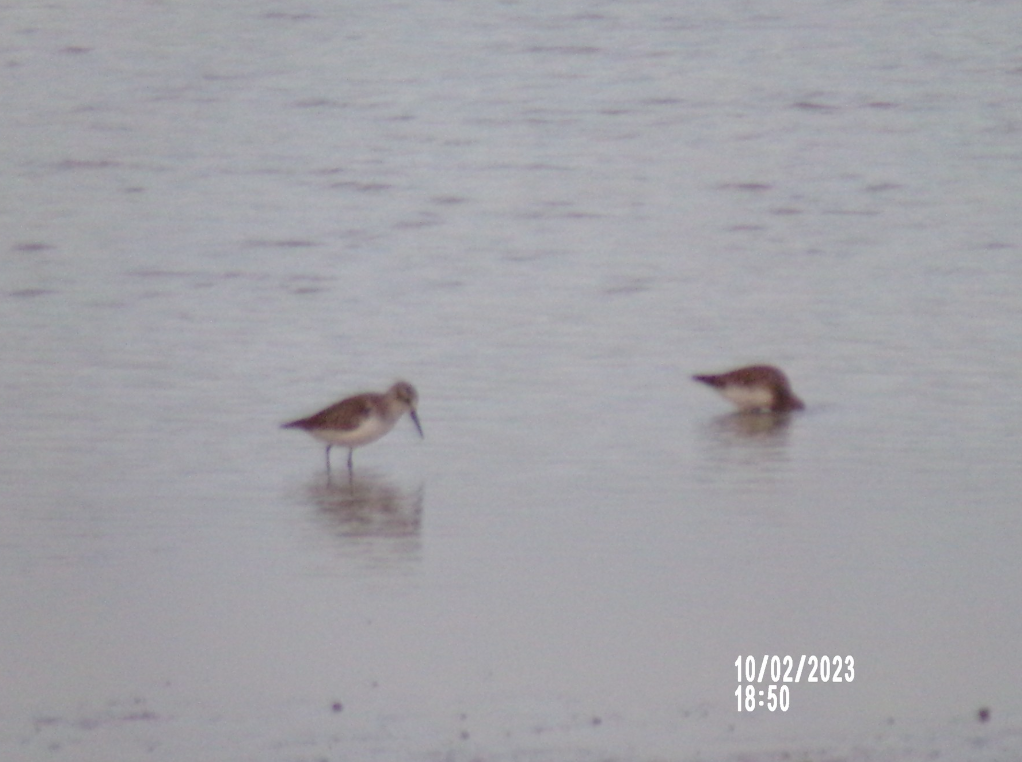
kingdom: Animalia
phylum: Chordata
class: Aves
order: Charadriiformes
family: Scolopacidae
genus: Calidris
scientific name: Calidris mauri
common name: Western sandpiper
